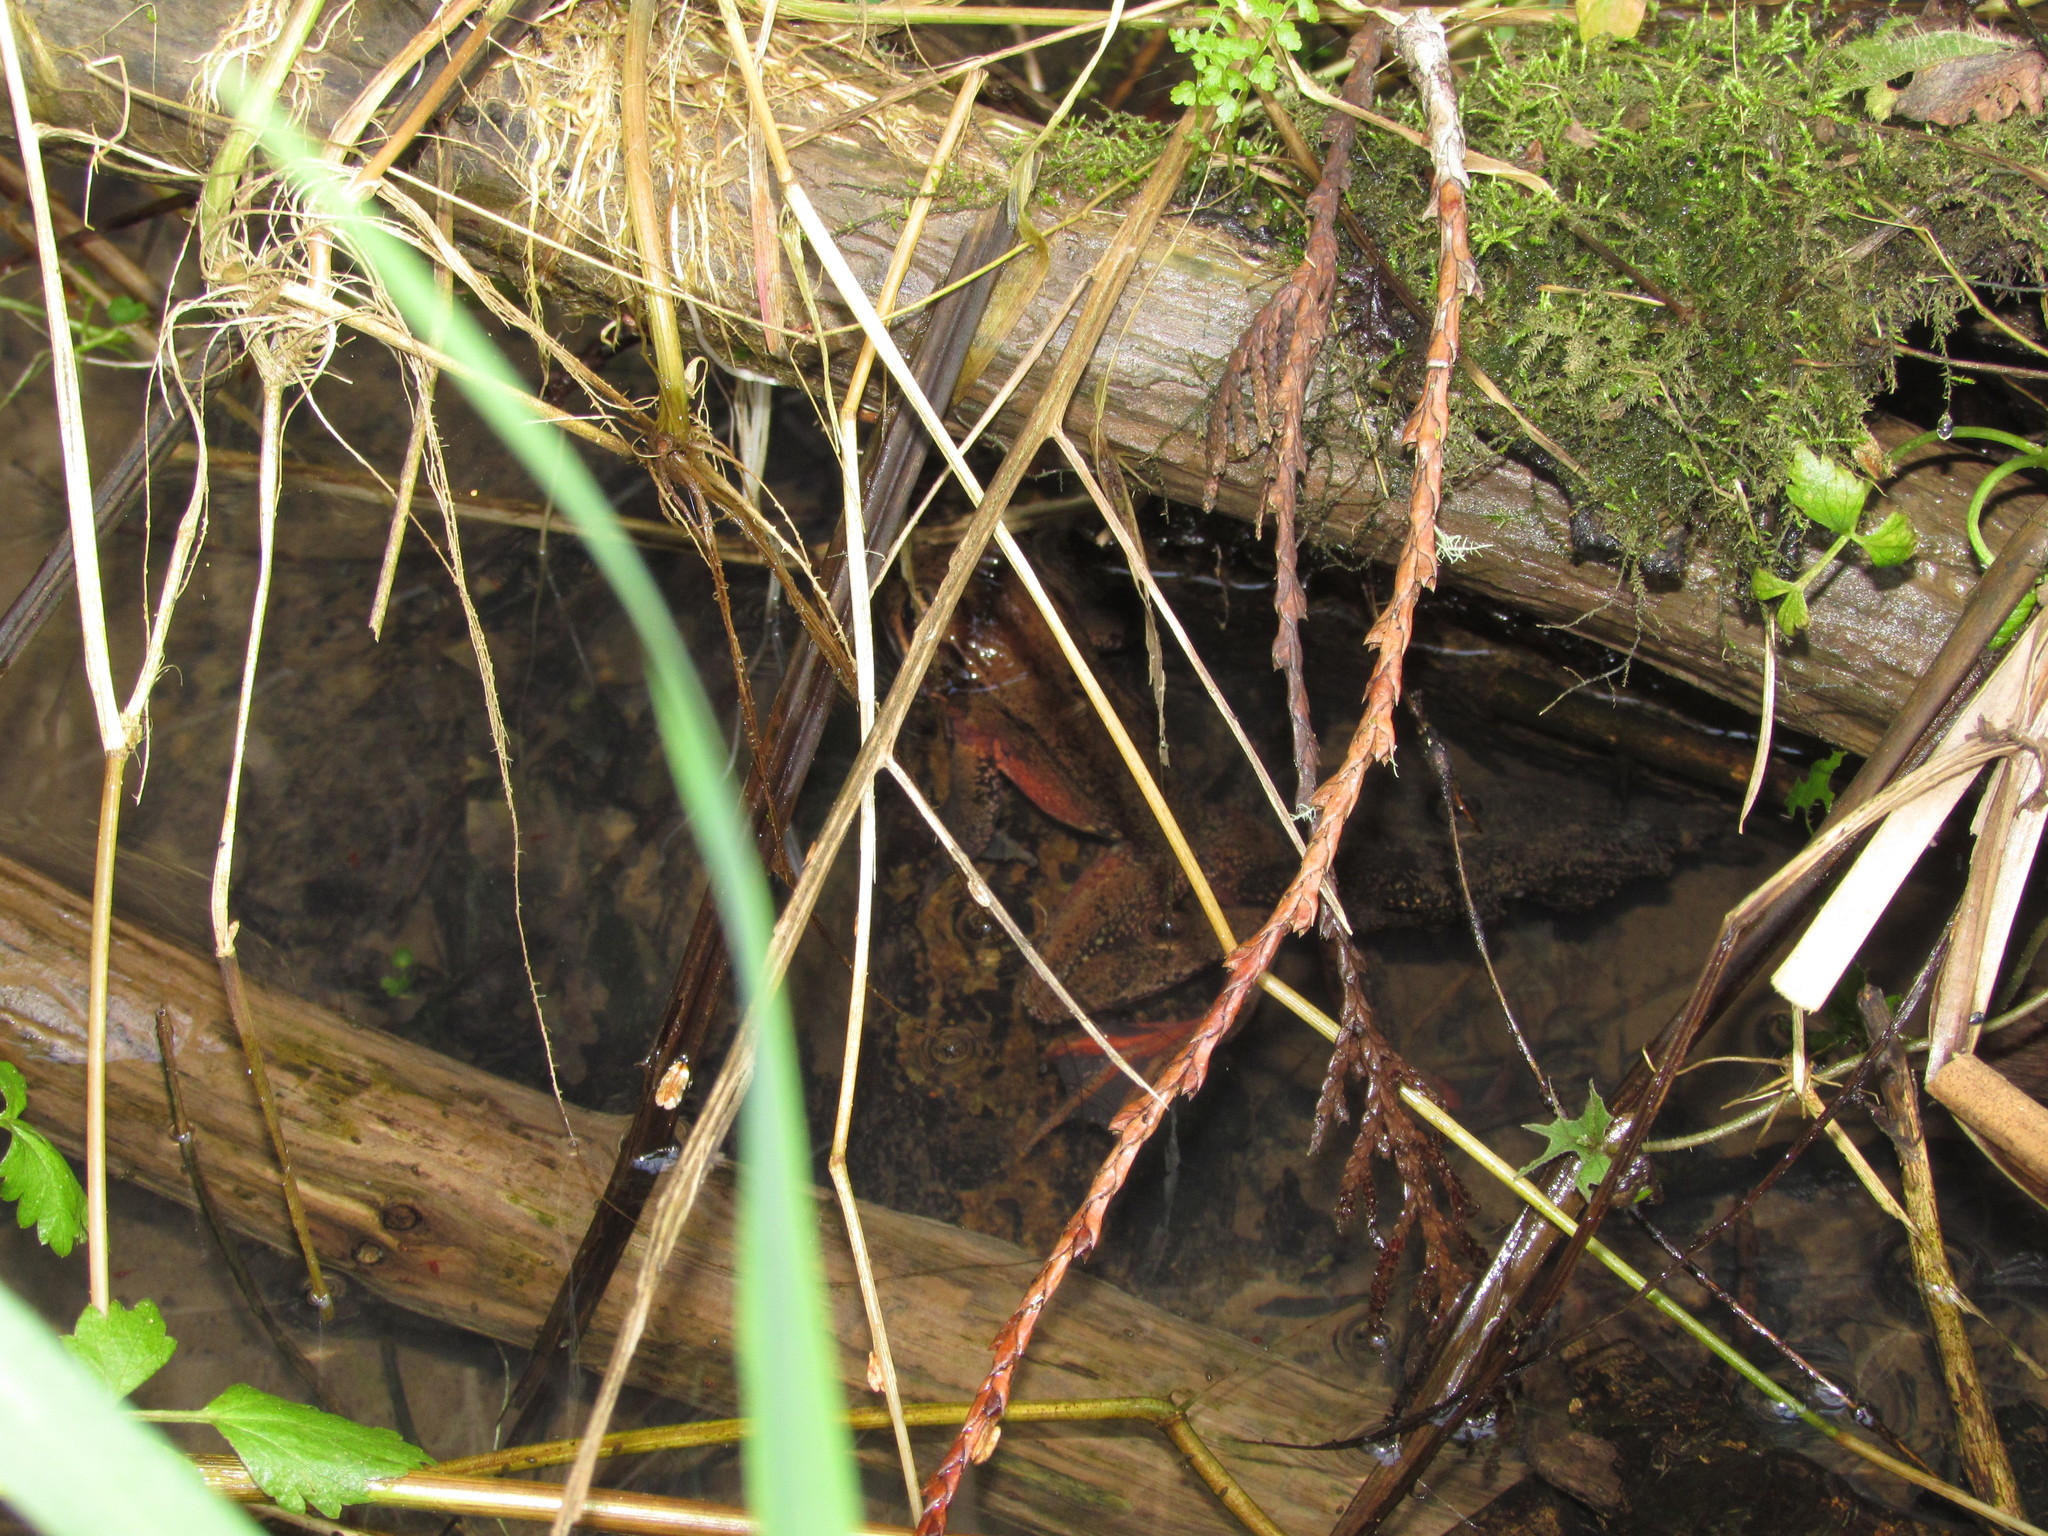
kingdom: Animalia
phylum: Chordata
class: Amphibia
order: Anura
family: Ranidae
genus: Rana
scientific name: Rana aurora
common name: Red-legged frog
